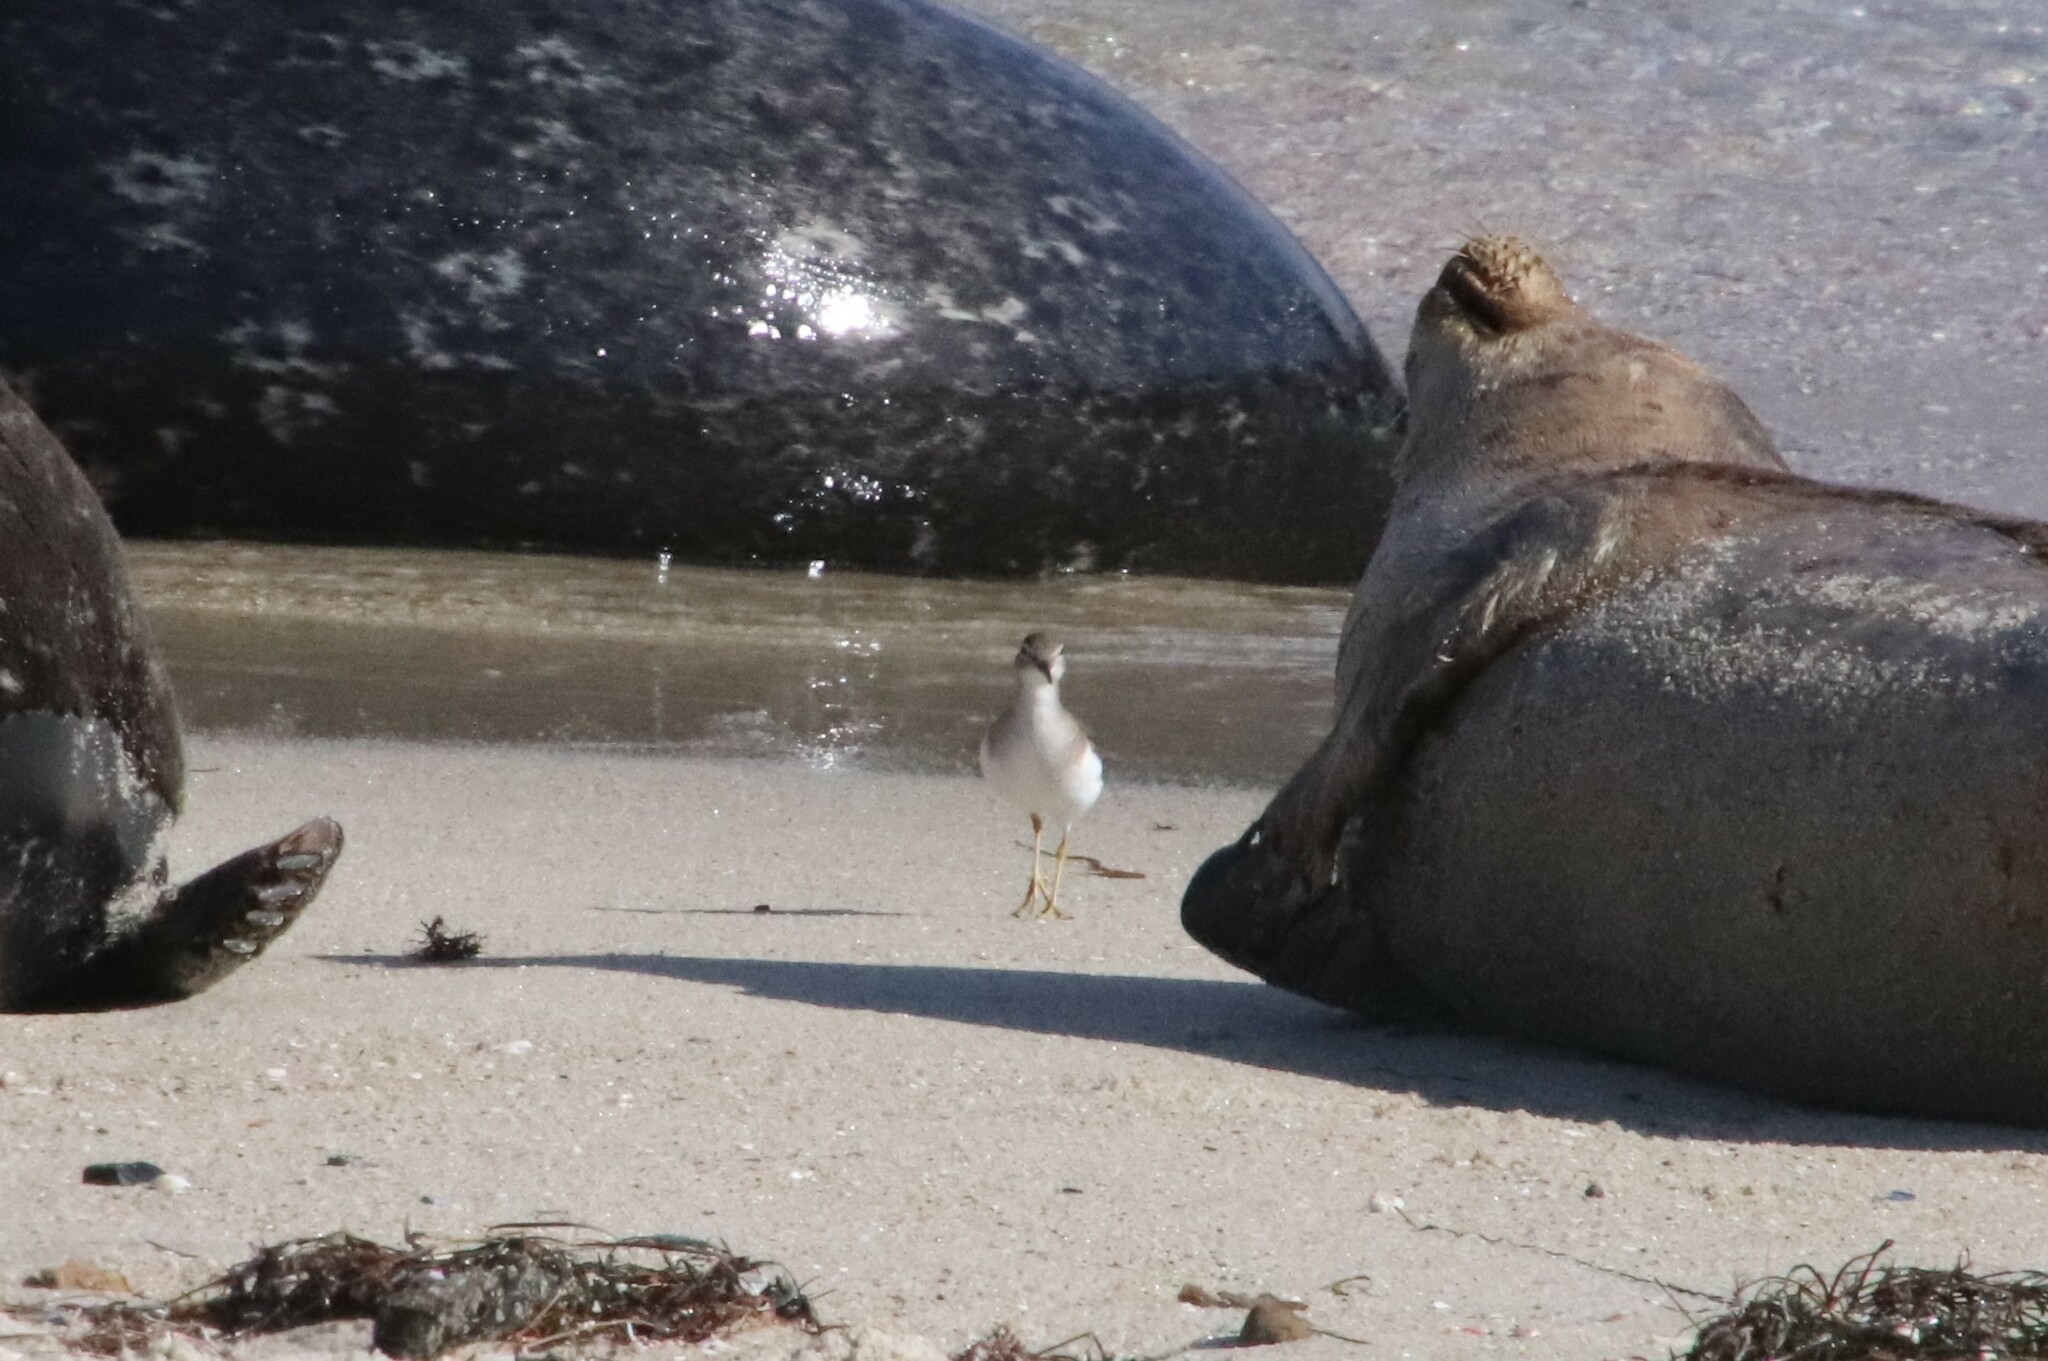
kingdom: Animalia
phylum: Chordata
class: Aves
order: Charadriiformes
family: Scolopacidae
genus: Actitis
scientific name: Actitis macularius
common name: Spotted sandpiper
